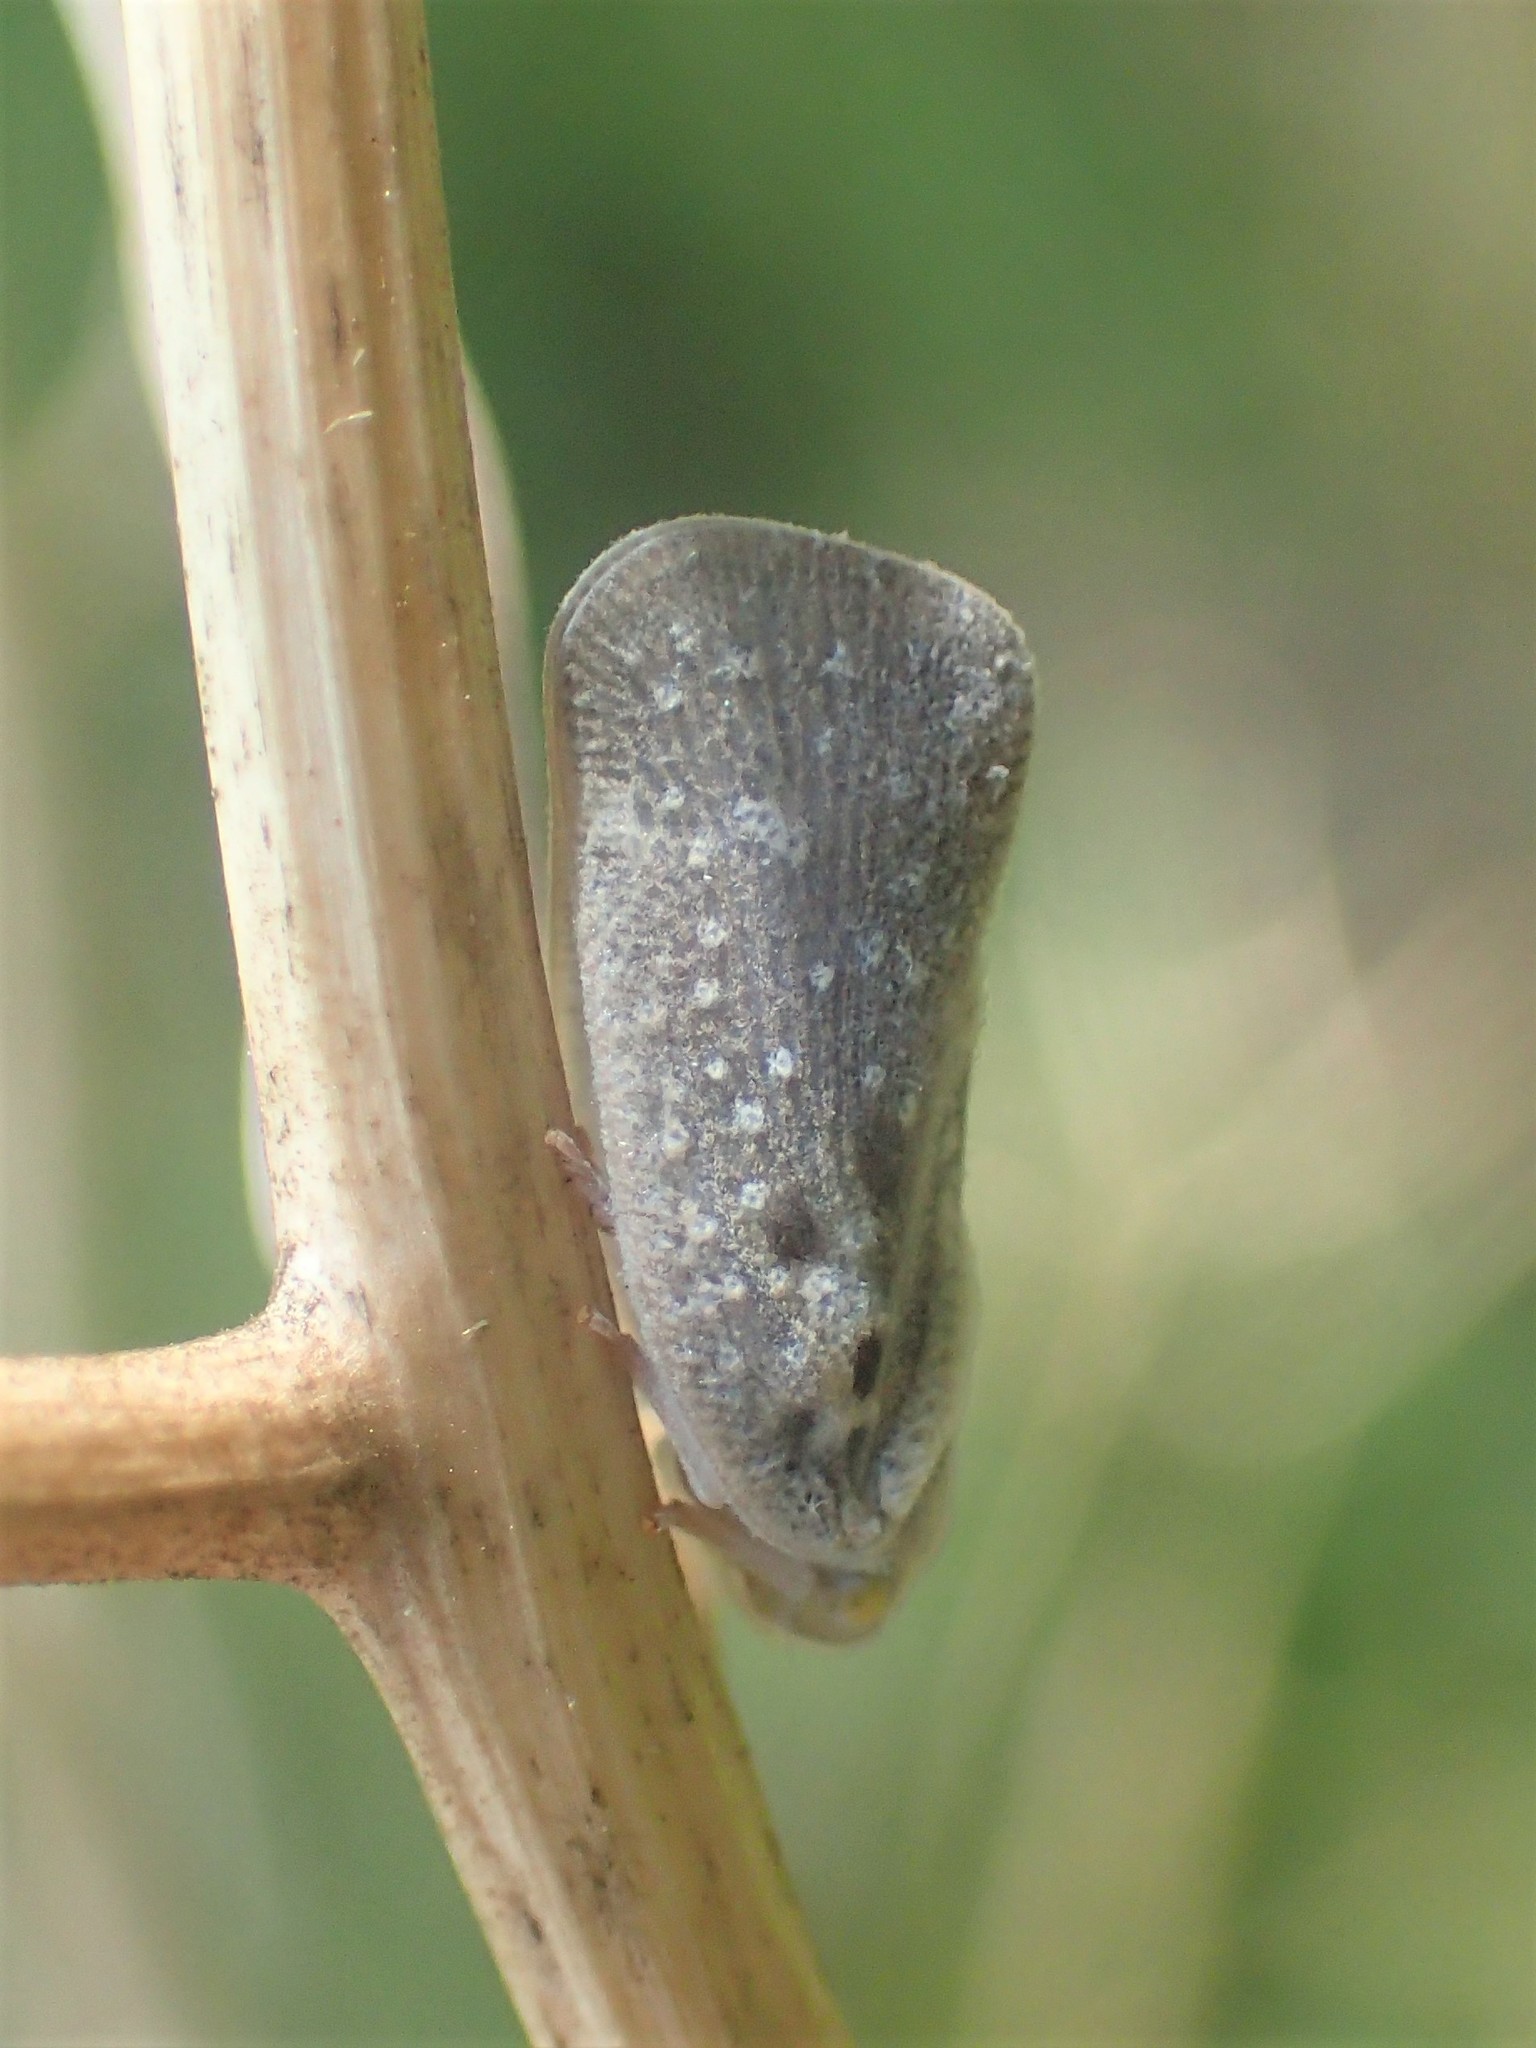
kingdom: Animalia
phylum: Arthropoda
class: Insecta
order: Hemiptera
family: Flatidae
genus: Metcalfa
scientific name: Metcalfa pruinosa
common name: Citrus flatid planthopper
